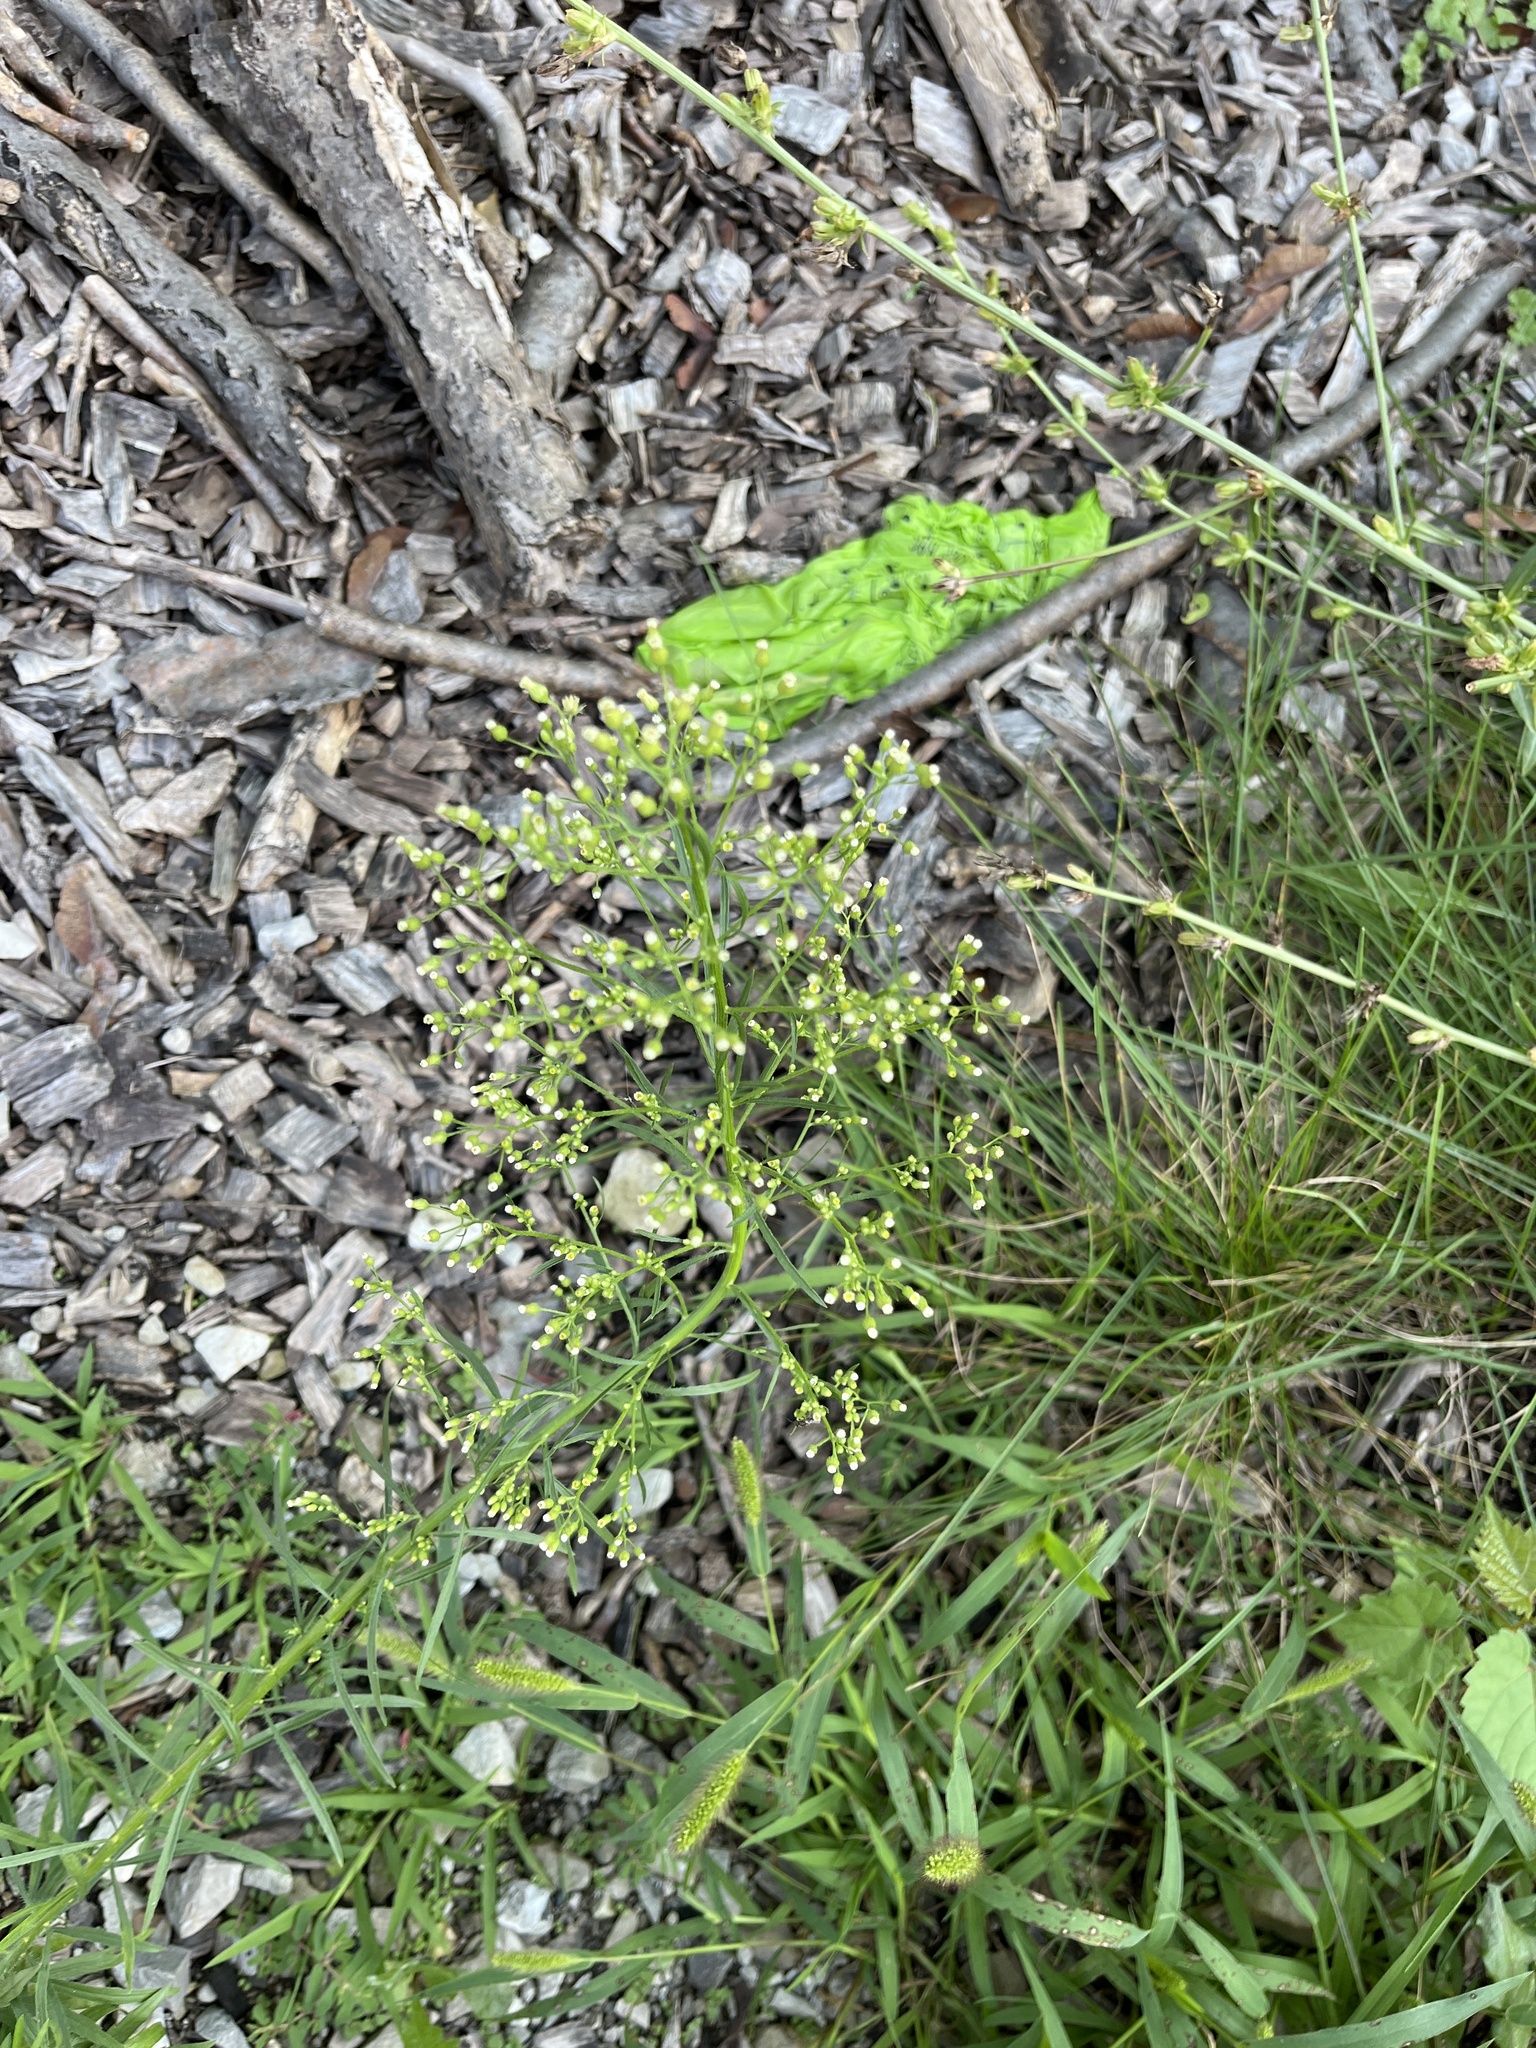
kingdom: Plantae
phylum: Tracheophyta
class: Magnoliopsida
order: Asterales
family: Asteraceae
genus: Erigeron
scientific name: Erigeron canadensis
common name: Canadian fleabane
